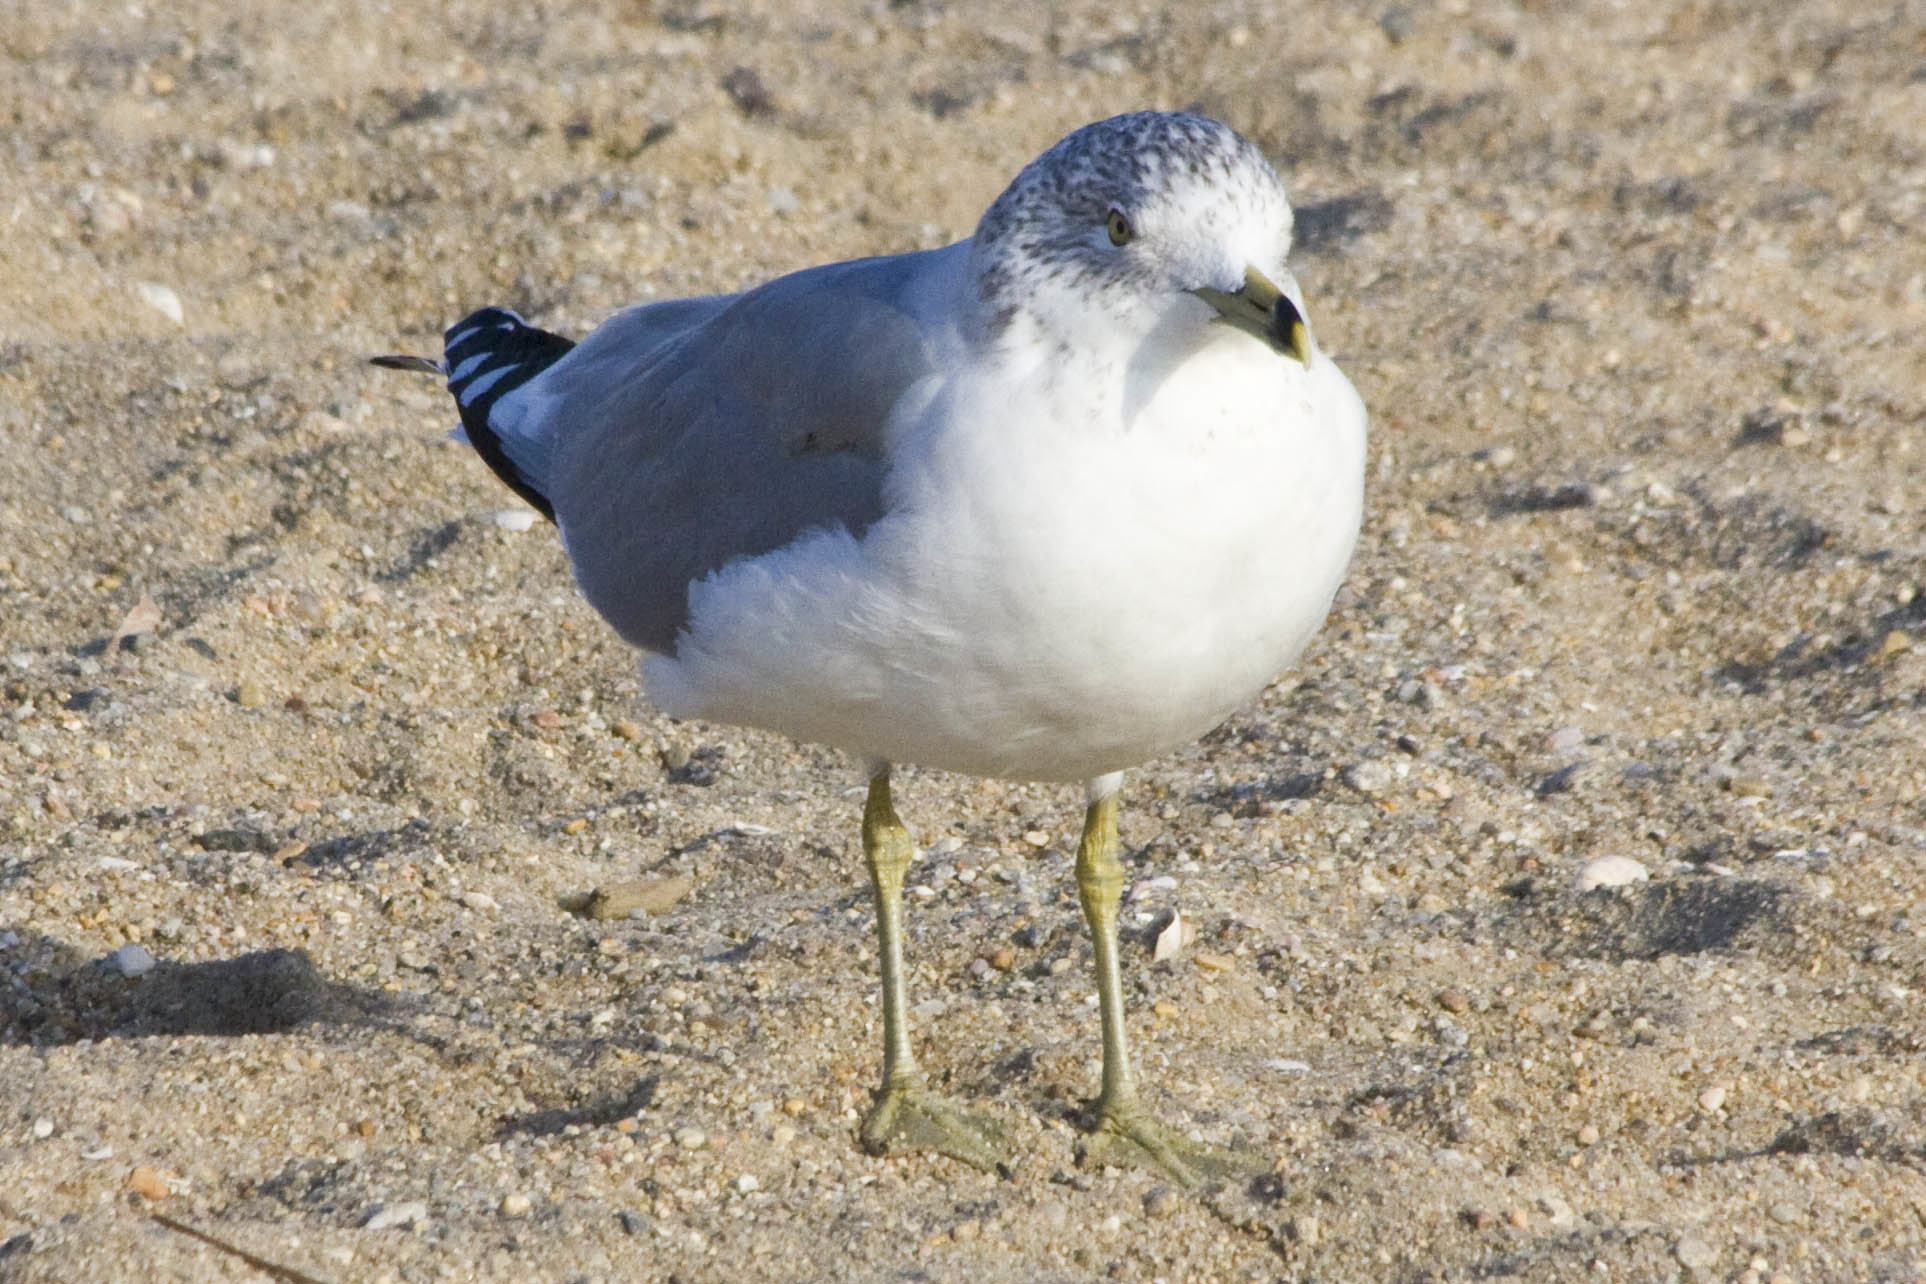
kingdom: Animalia
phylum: Chordata
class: Aves
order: Charadriiformes
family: Laridae
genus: Larus
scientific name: Larus delawarensis
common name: Ring-billed gull
